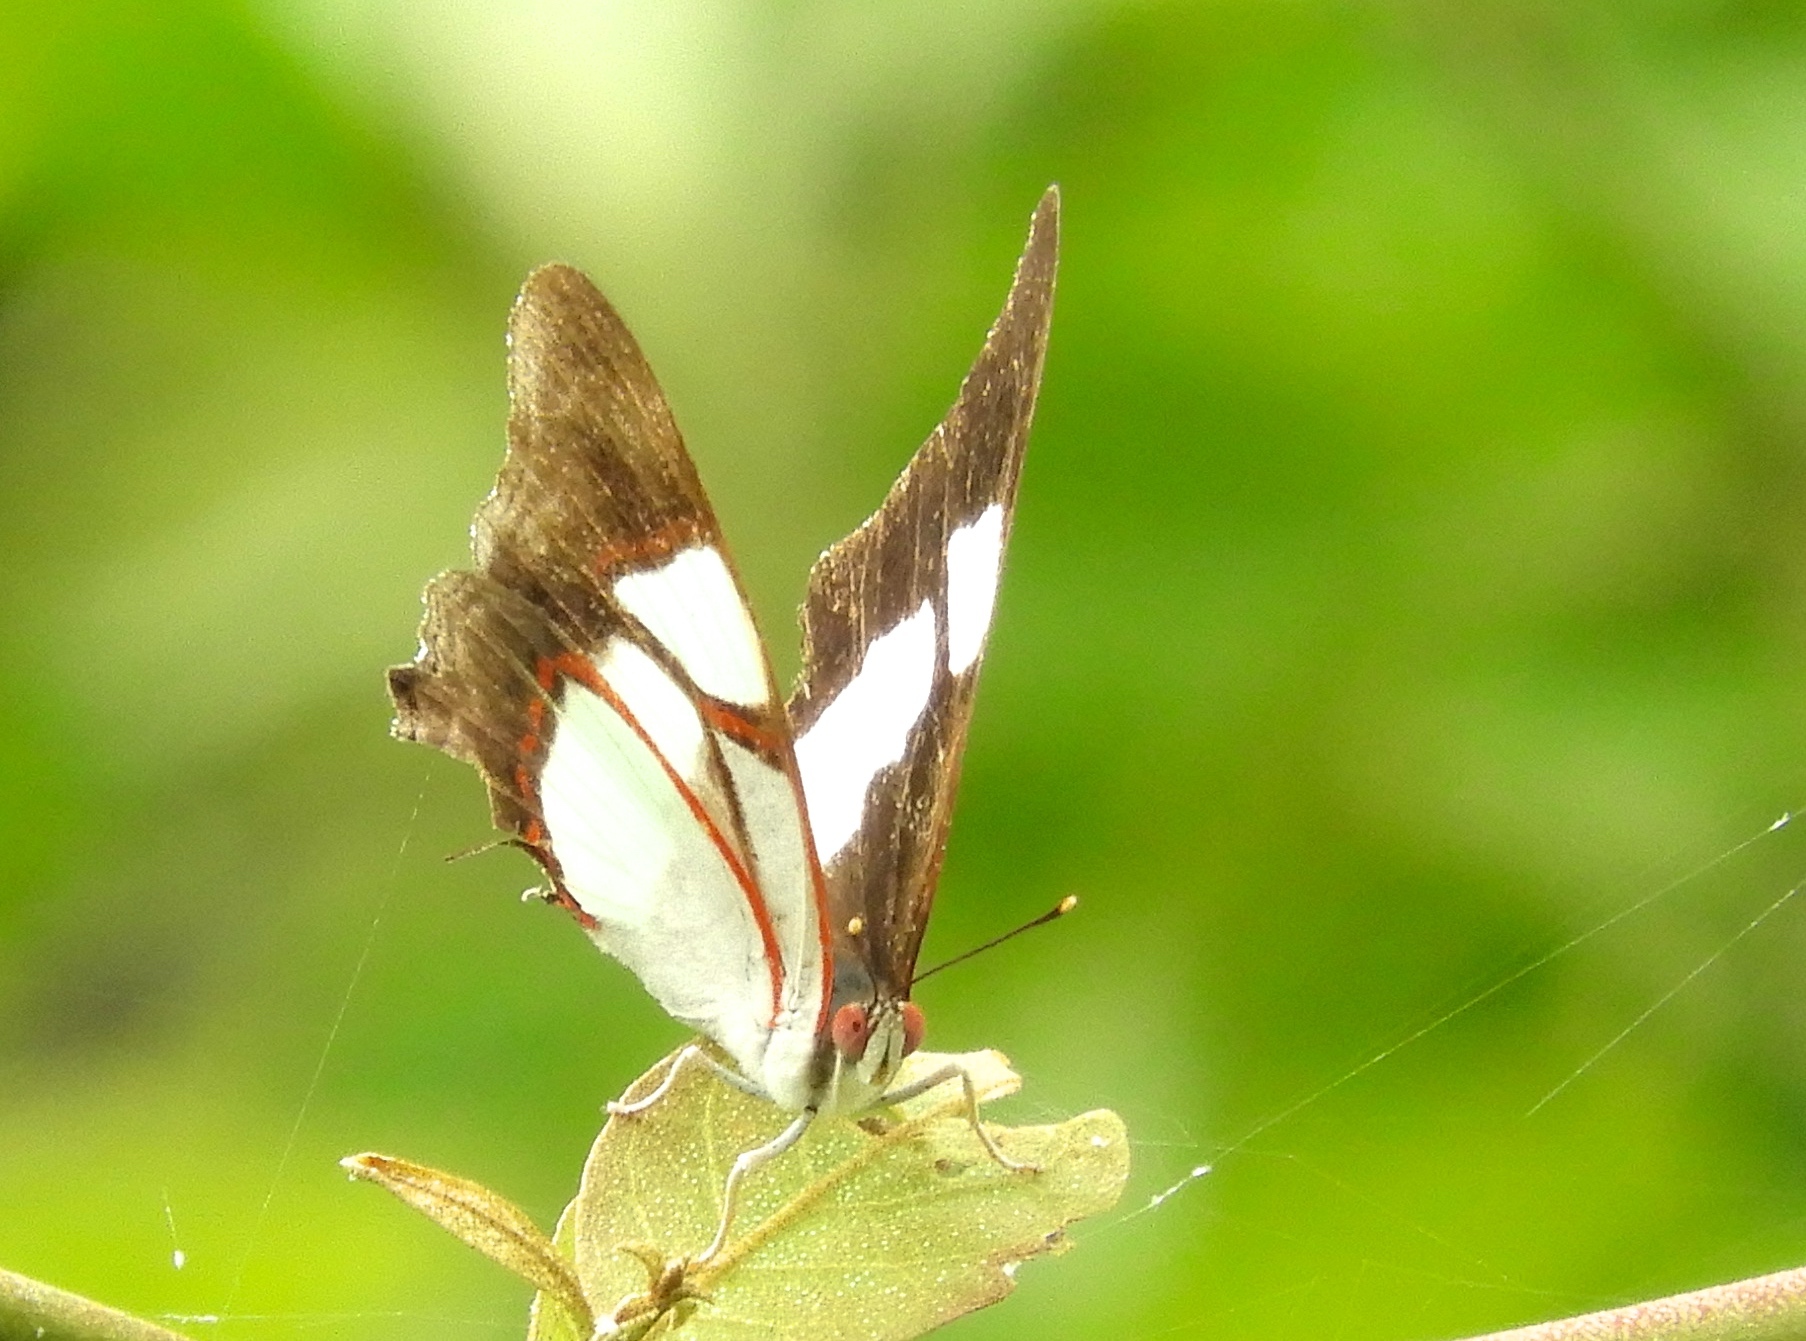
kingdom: Animalia
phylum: Arthropoda
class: Insecta
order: Lepidoptera
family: Nymphalidae
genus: Pyrrhogyra
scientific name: Pyrrhogyra neaerea
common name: Leading red-ring
